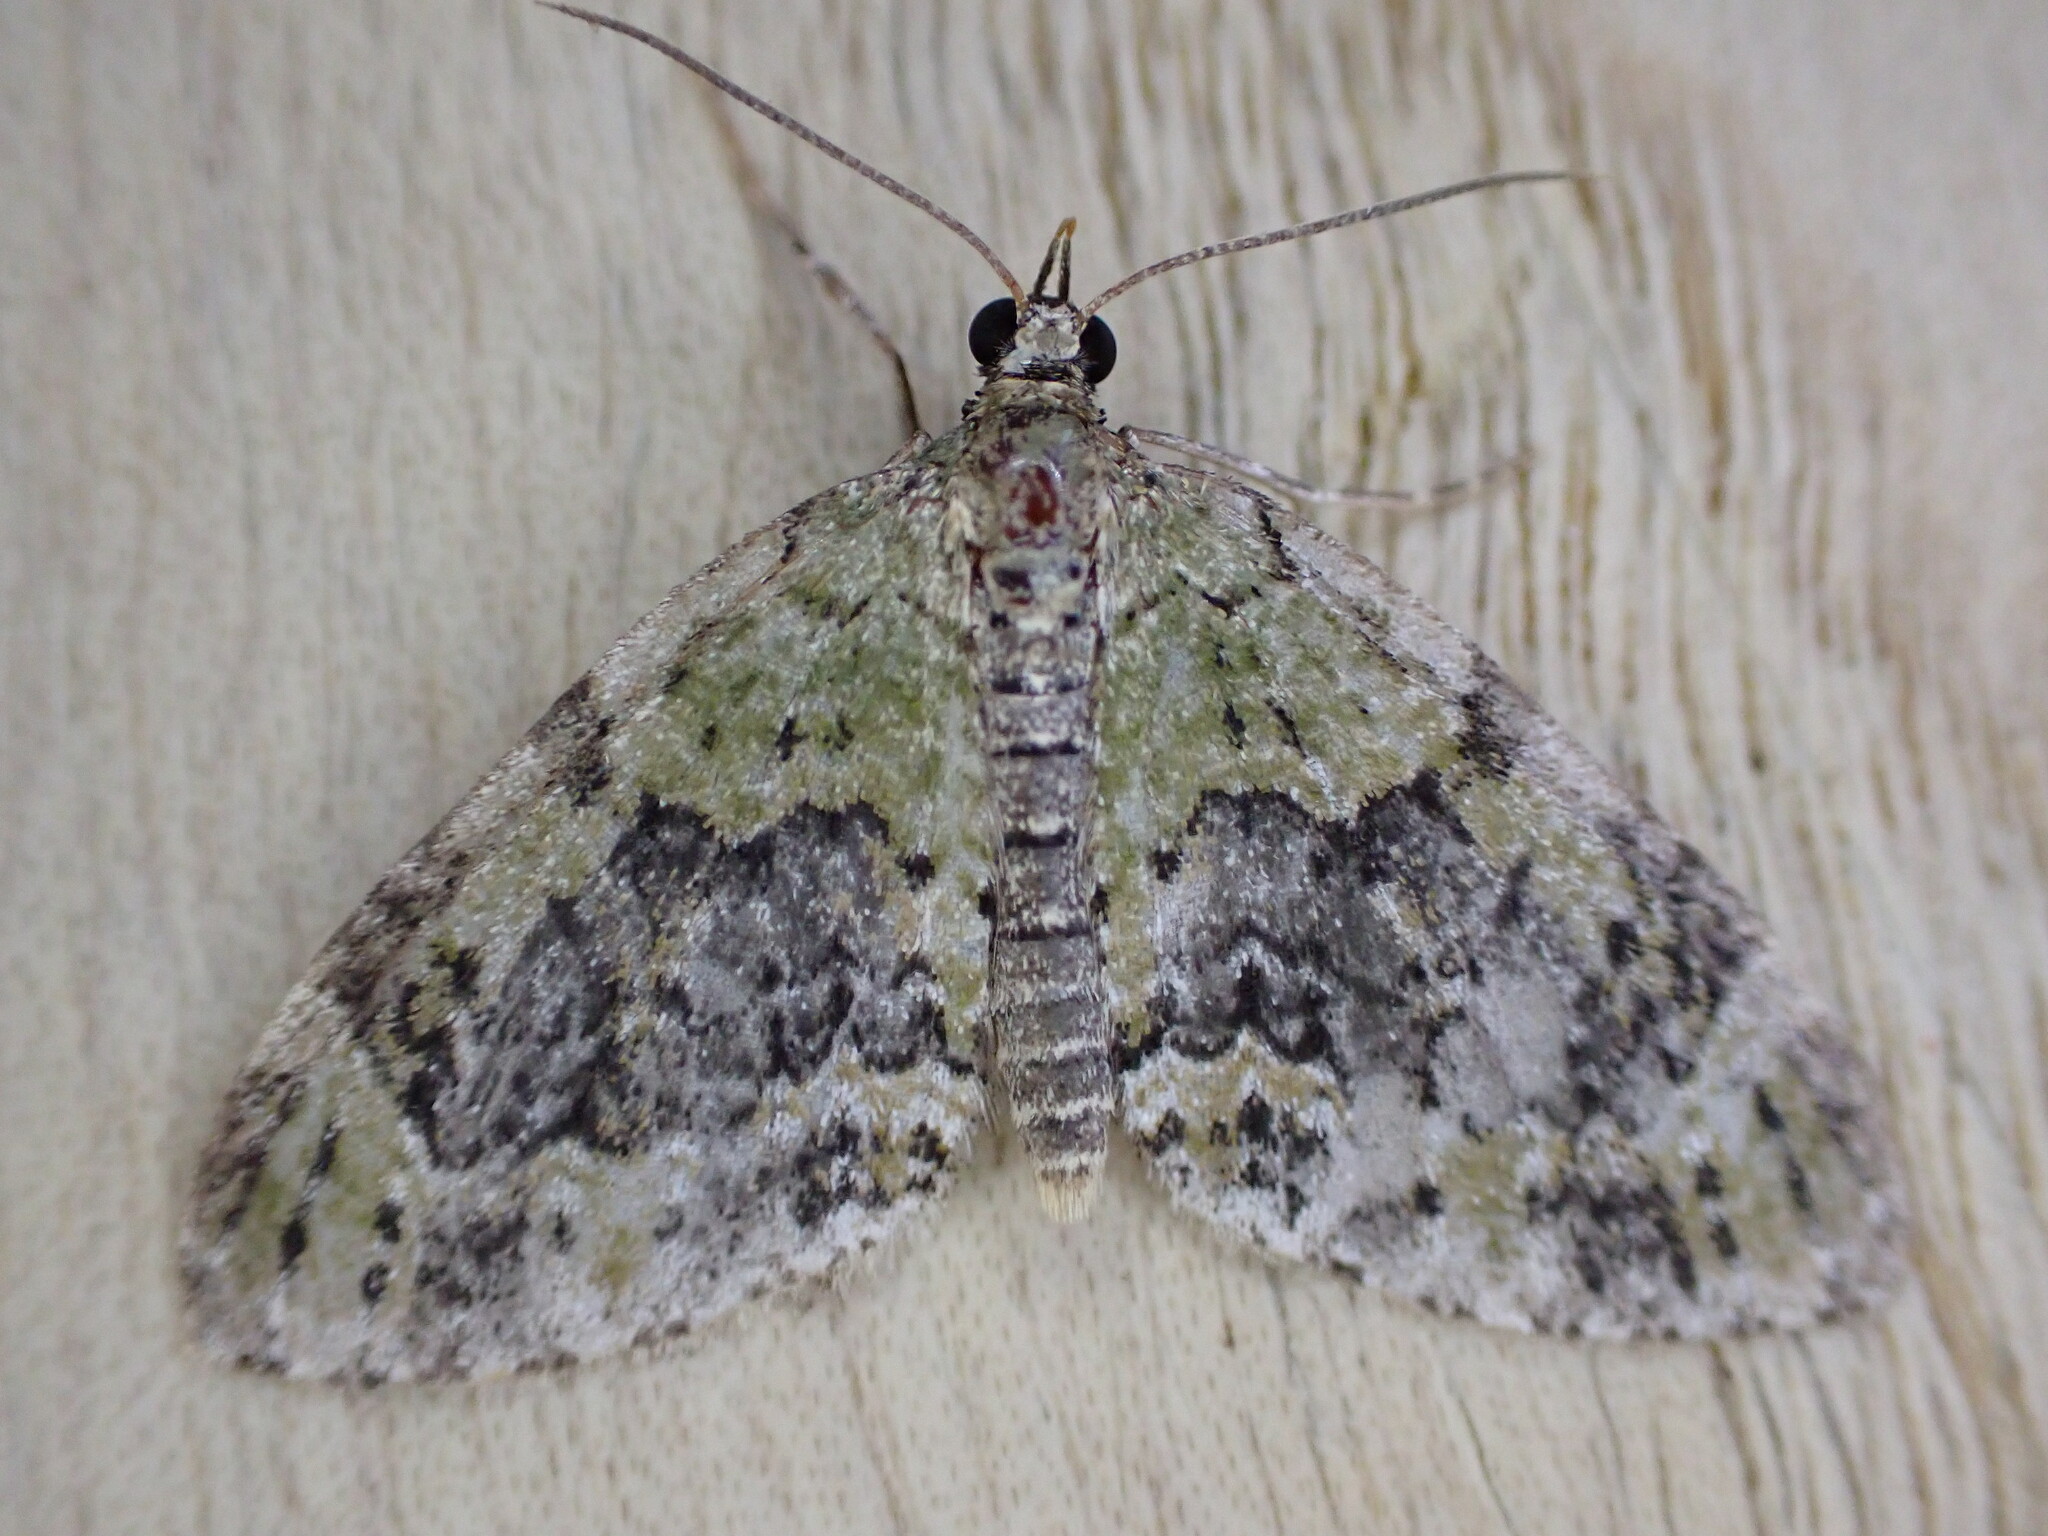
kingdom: Animalia
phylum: Arthropoda
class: Insecta
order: Lepidoptera
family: Geometridae
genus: Acasis
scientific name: Acasis viretata
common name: Yellow-barred brindle
